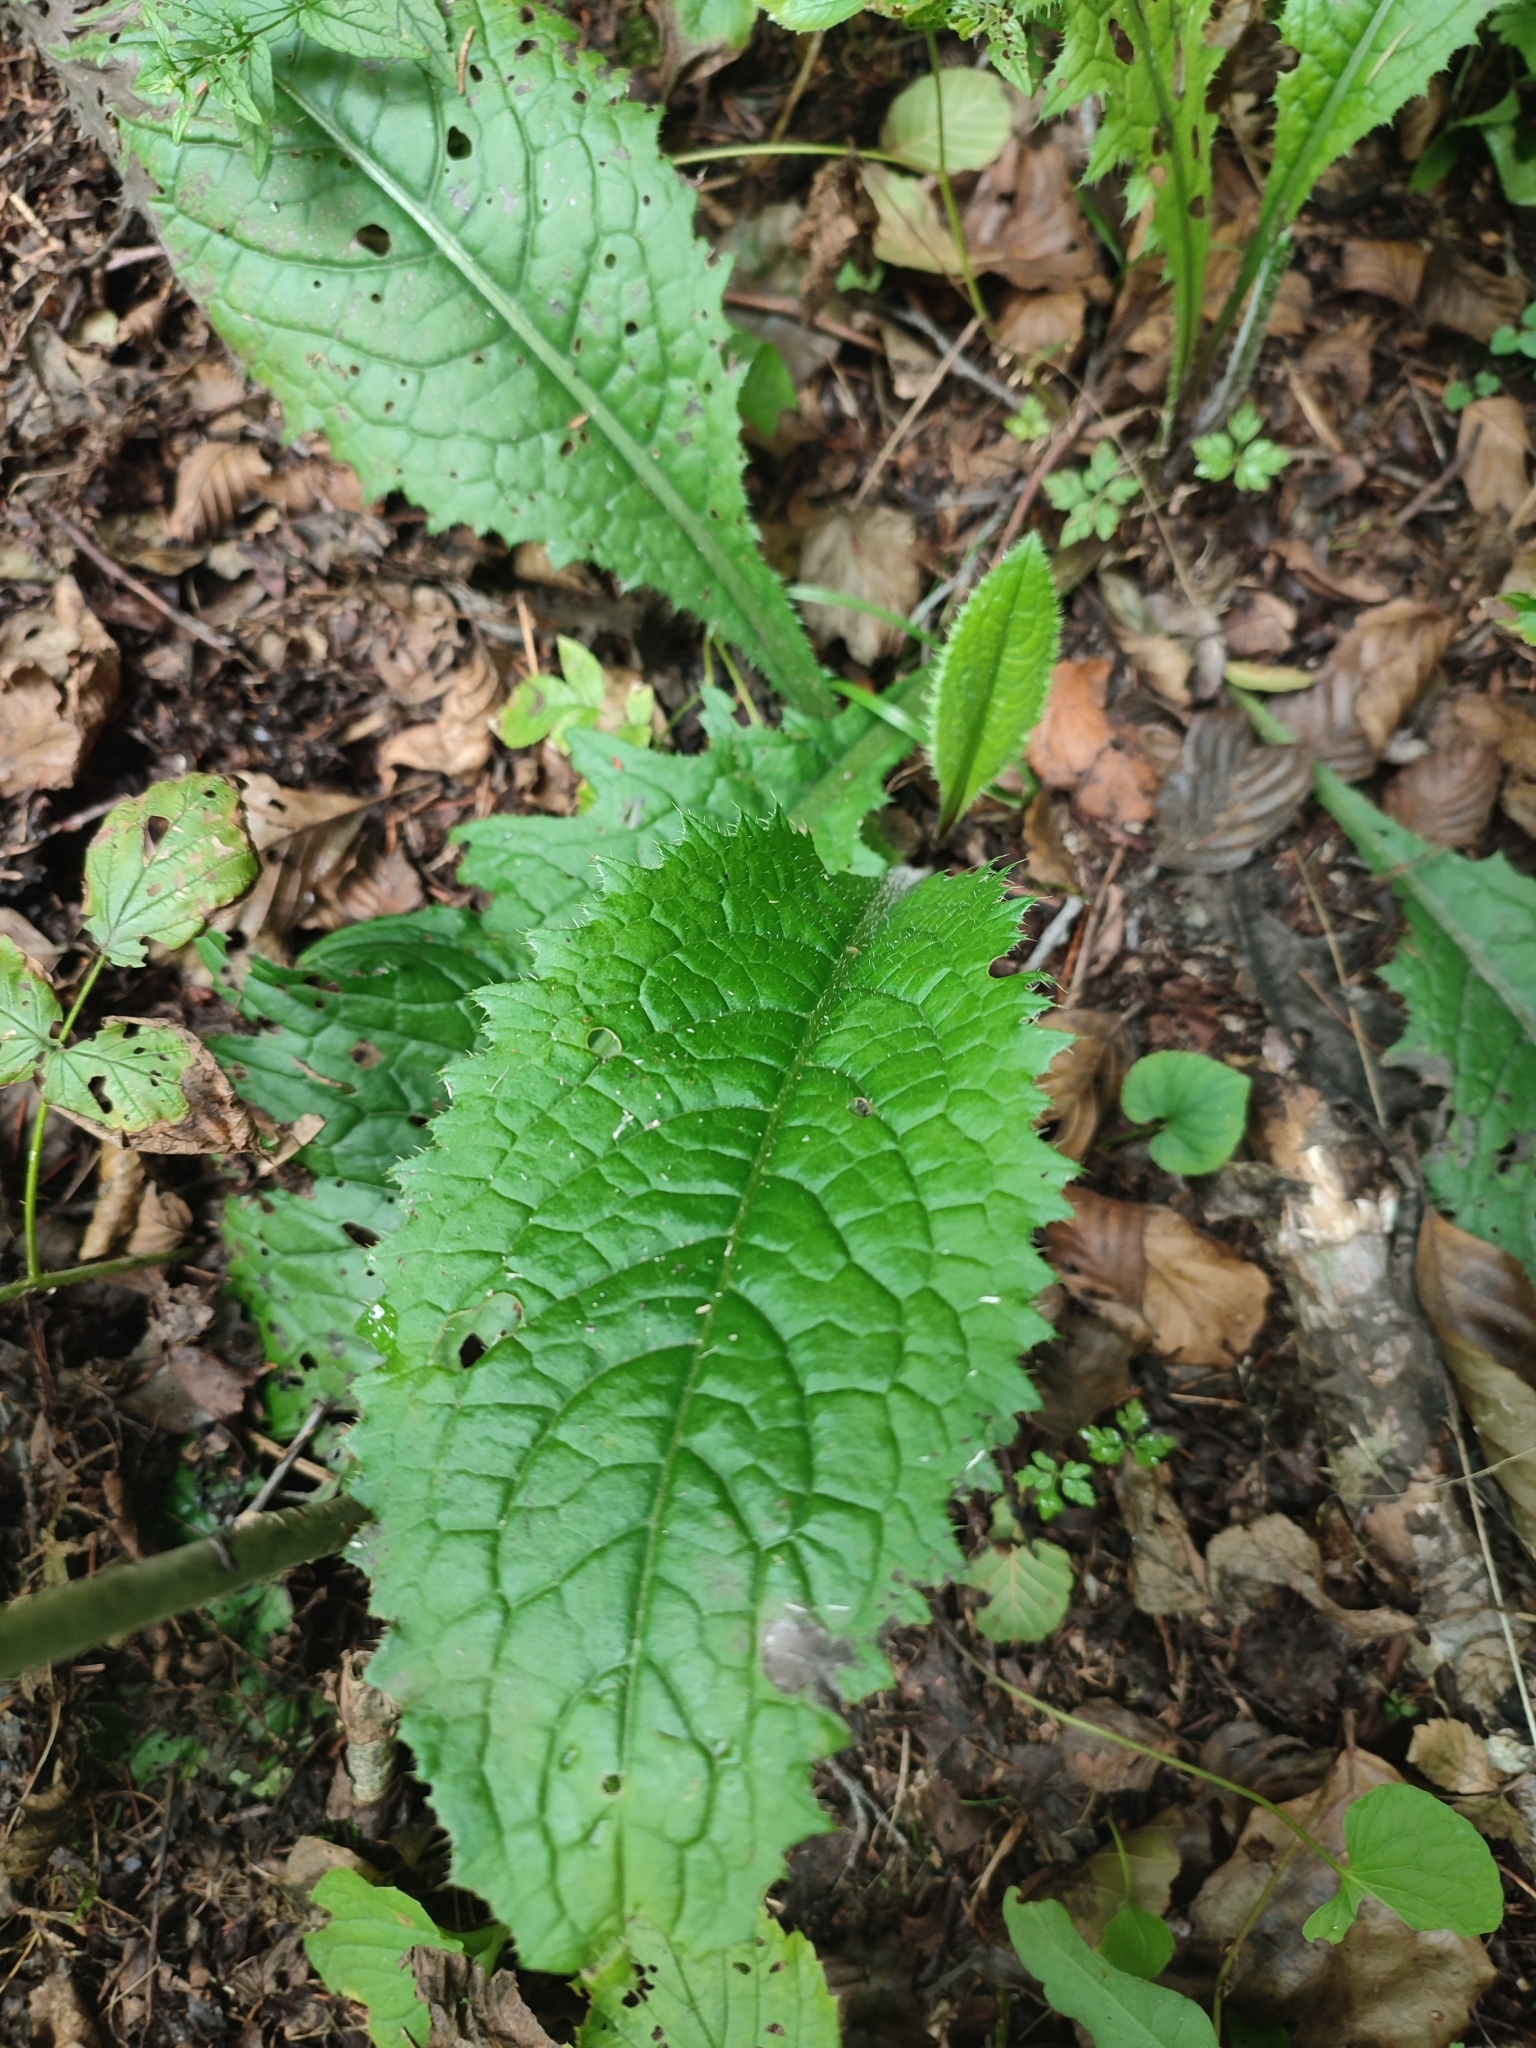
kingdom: Plantae
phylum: Tracheophyta
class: Magnoliopsida
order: Asterales
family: Asteraceae
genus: Cirsium
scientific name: Cirsium rivulare
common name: Brook thistle
